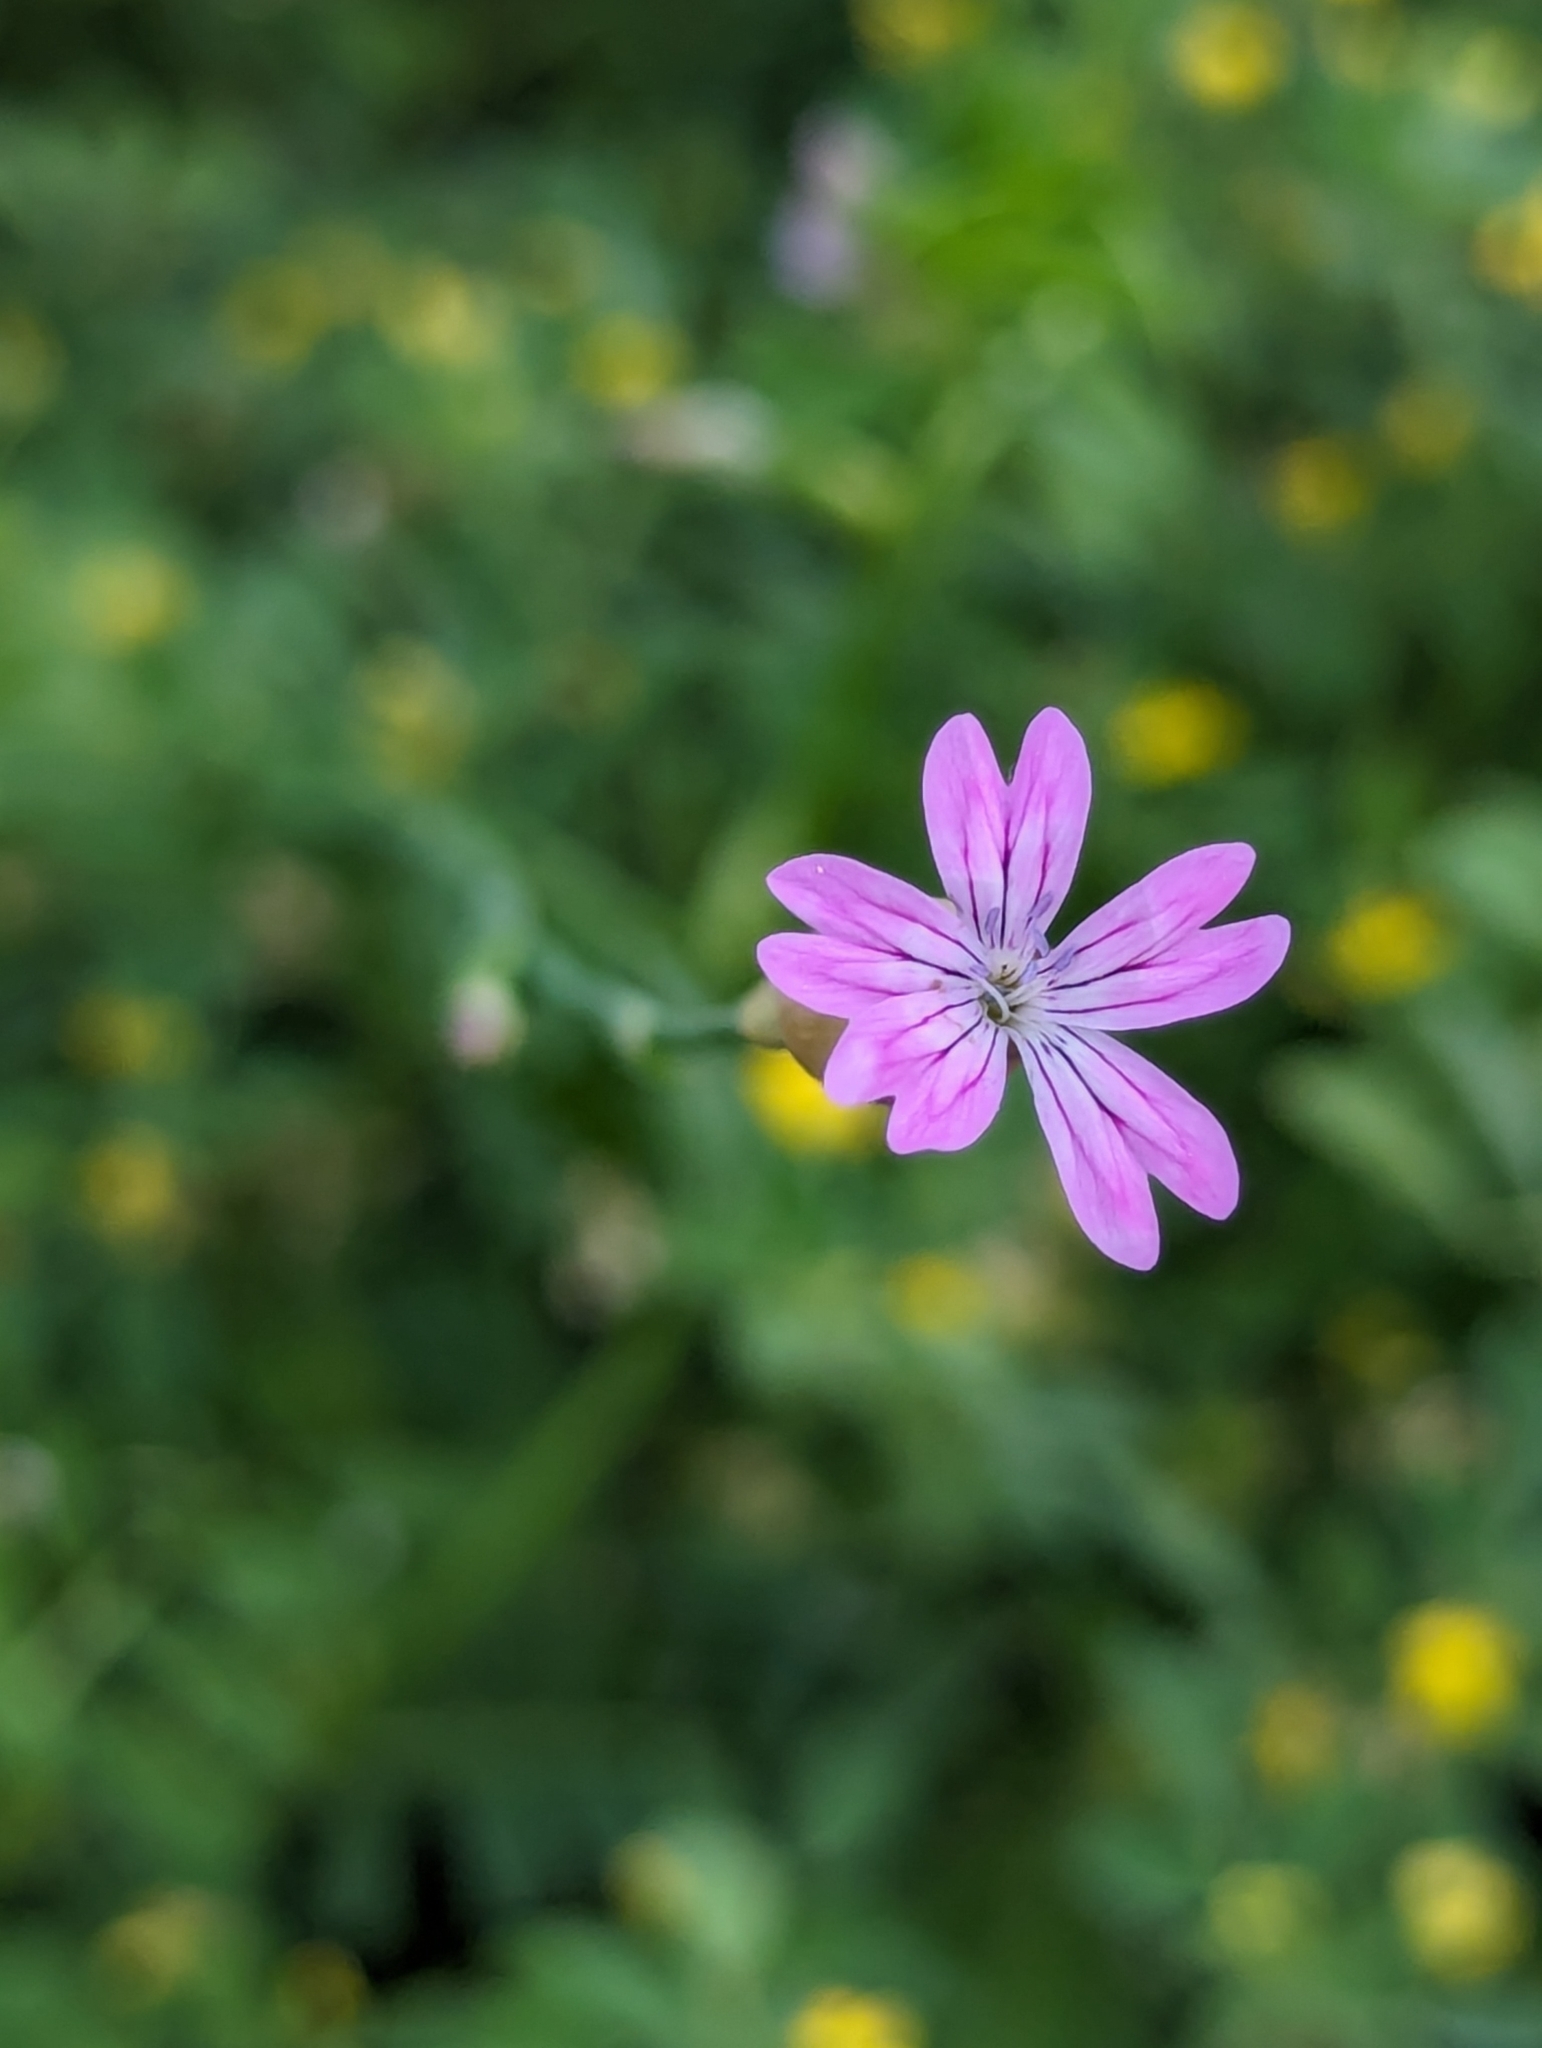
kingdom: Plantae
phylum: Tracheophyta
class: Magnoliopsida
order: Caryophyllales
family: Caryophyllaceae
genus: Petrorhagia
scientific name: Petrorhagia dubia
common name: Hairypink
